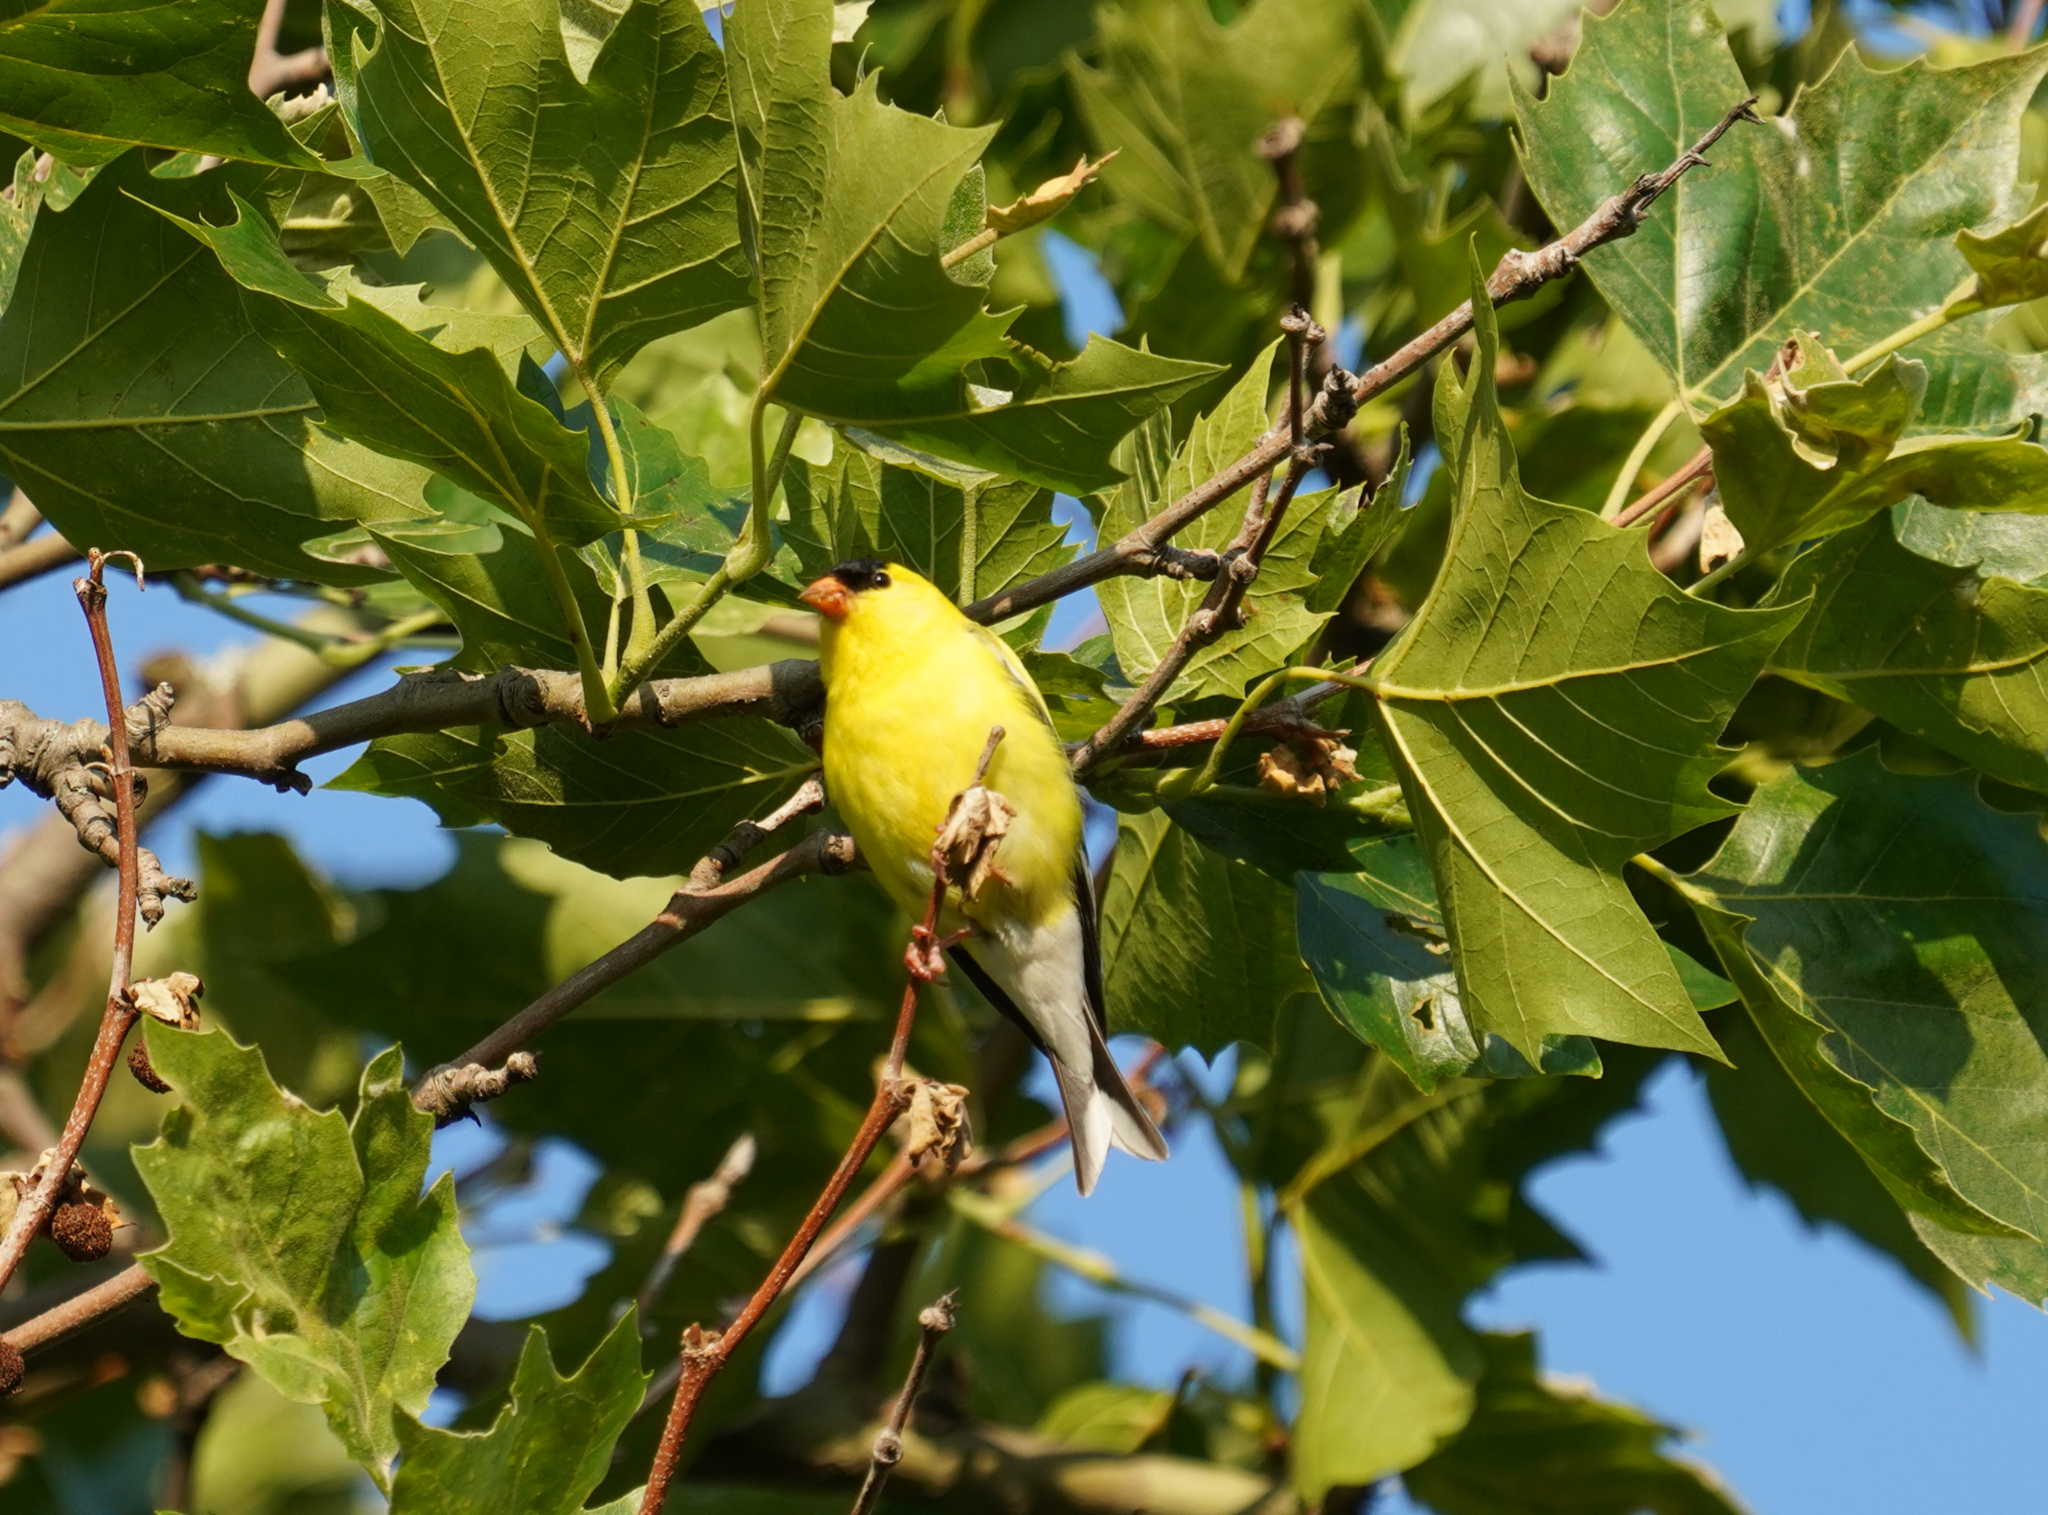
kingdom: Animalia
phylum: Chordata
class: Aves
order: Passeriformes
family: Fringillidae
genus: Spinus
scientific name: Spinus tristis
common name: American goldfinch
